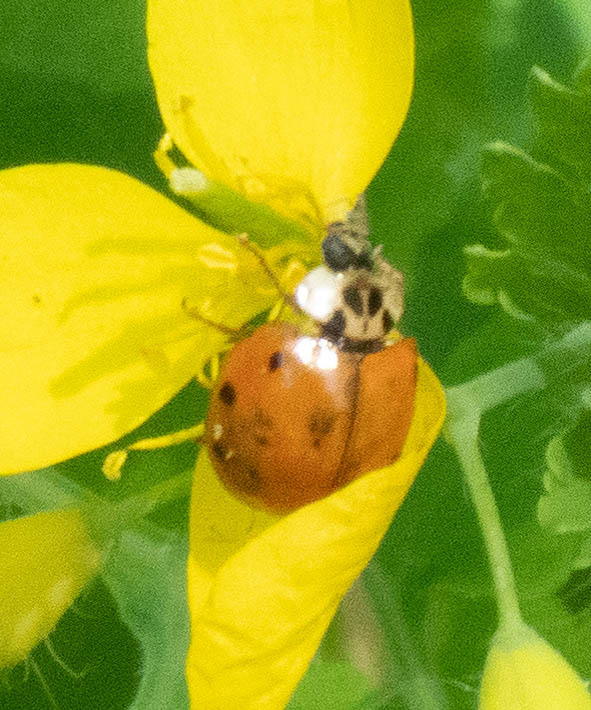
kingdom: Animalia
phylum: Arthropoda
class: Insecta
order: Coleoptera
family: Coccinellidae
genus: Harmonia
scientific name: Harmonia axyridis
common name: Harlequin ladybird
